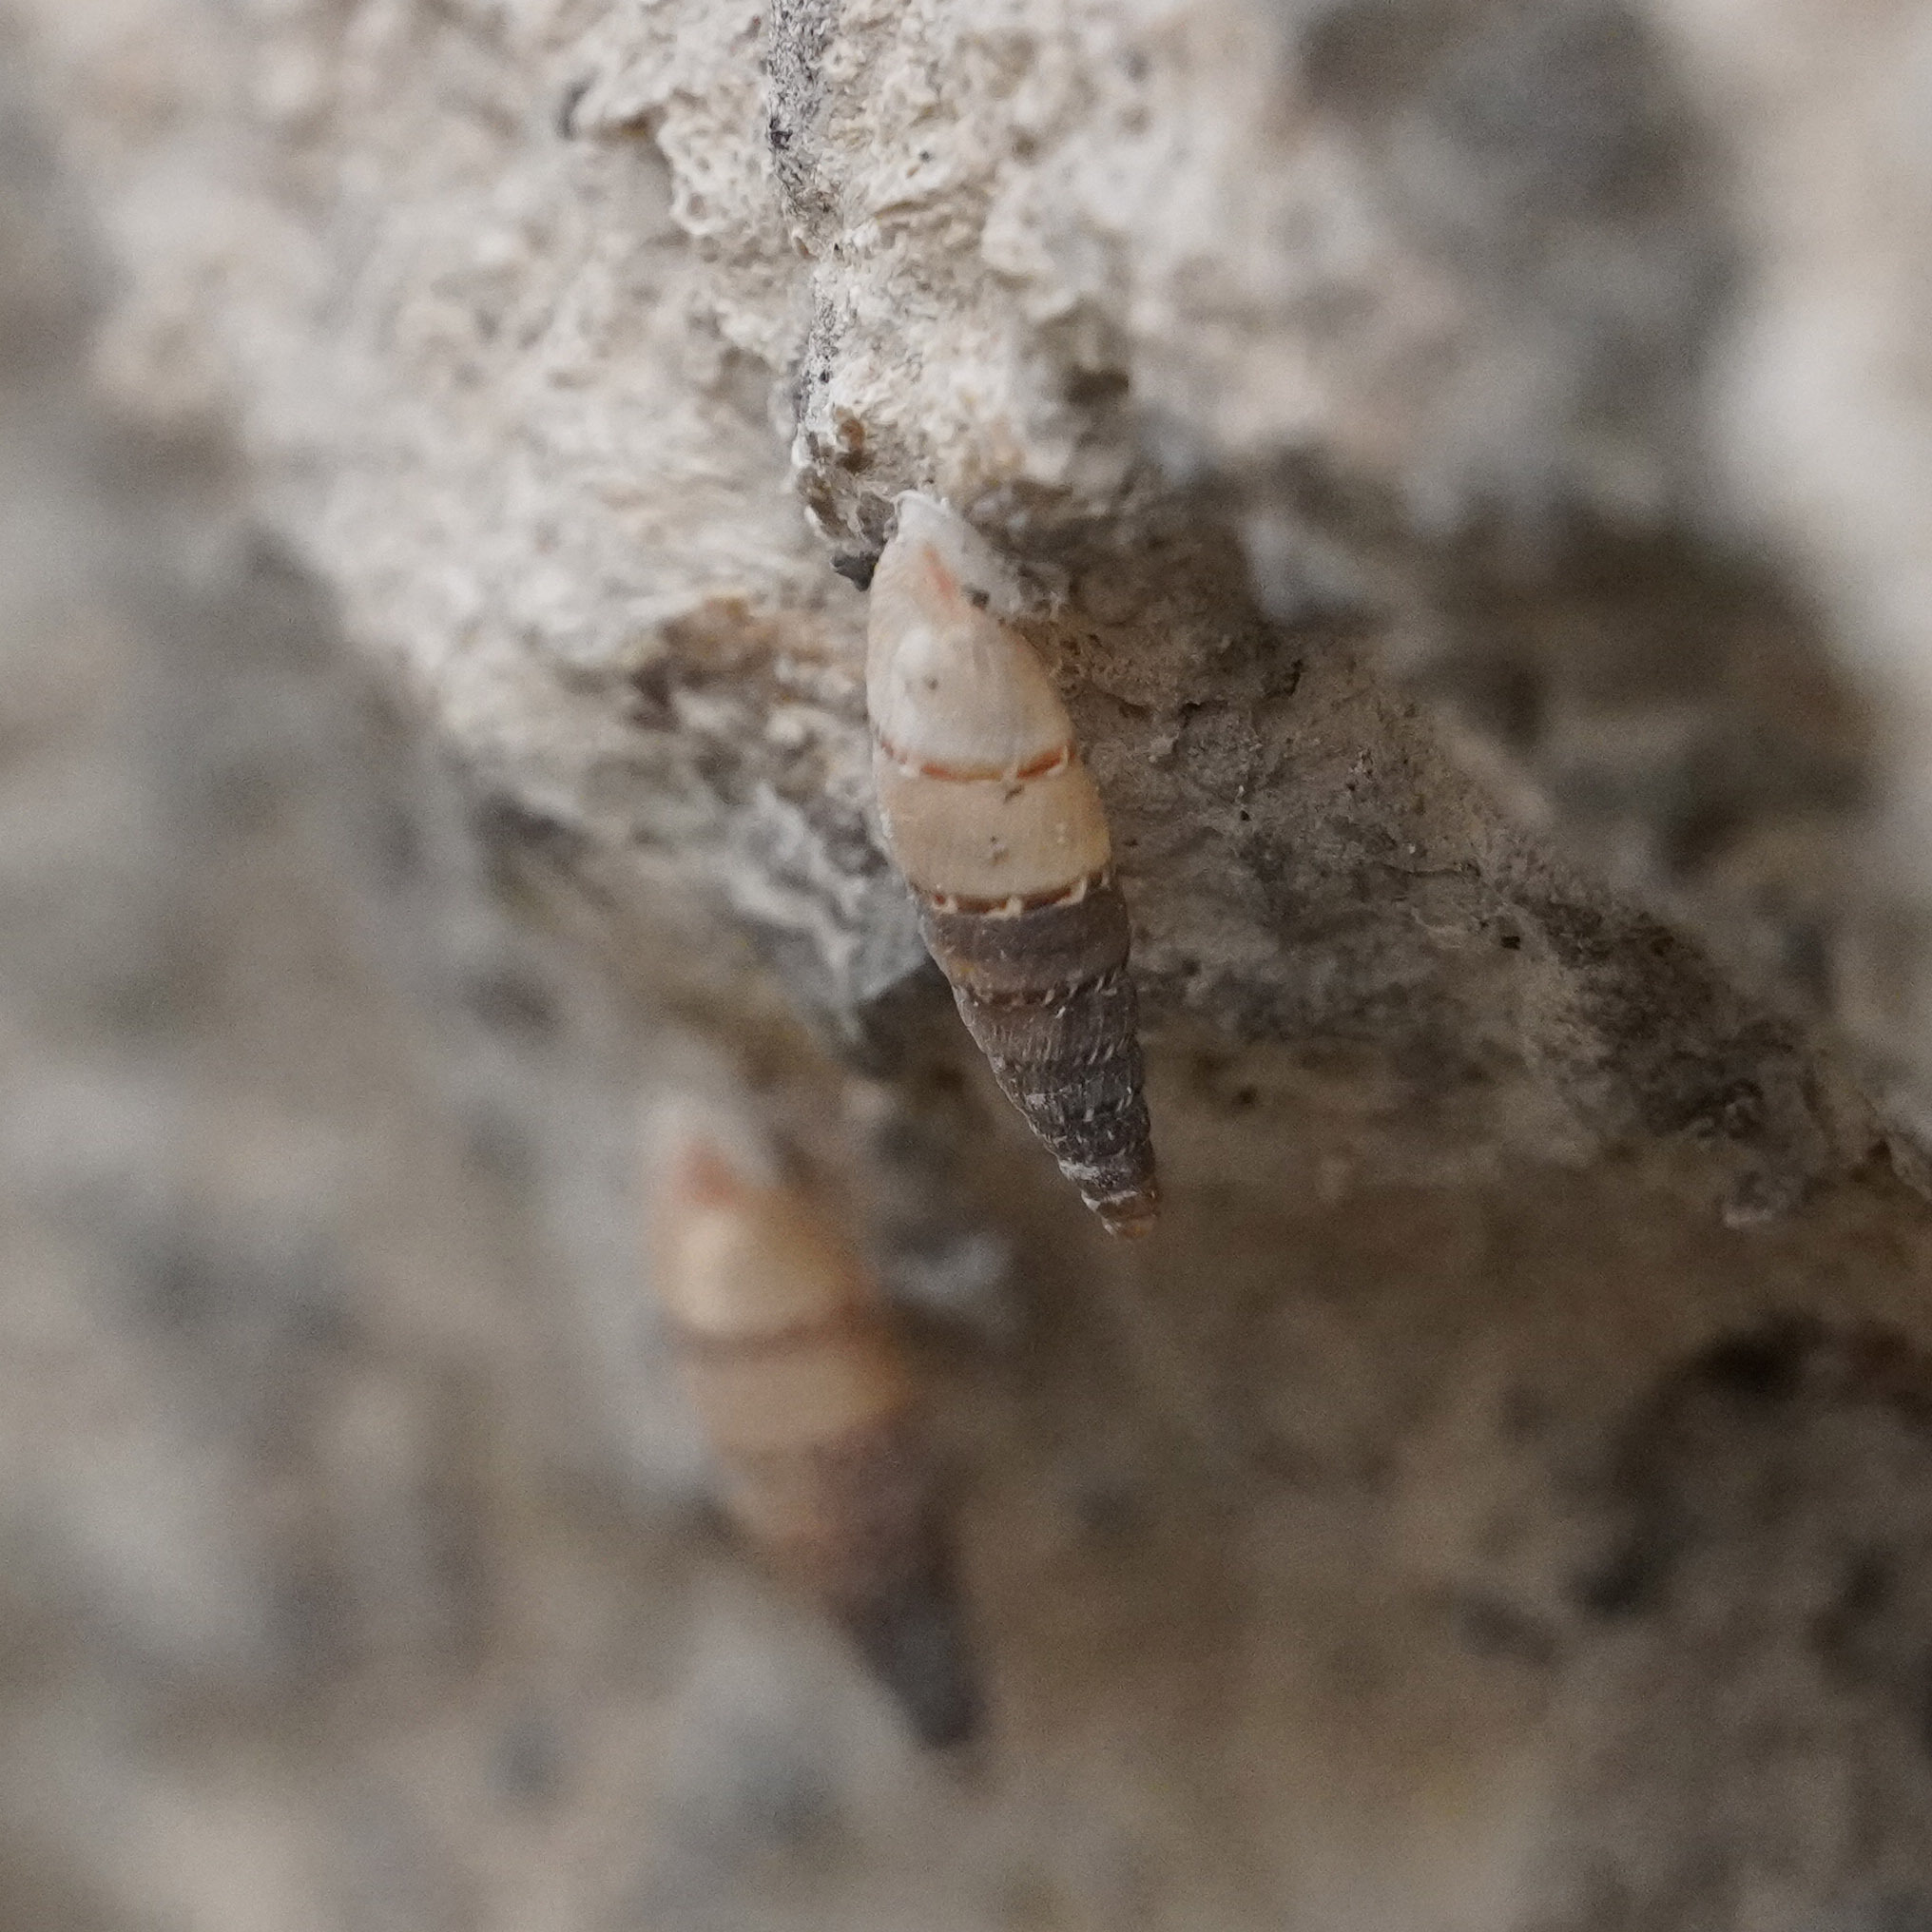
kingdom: Animalia
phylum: Mollusca
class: Gastropoda
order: Stylommatophora
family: Clausiliidae
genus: Papillifera
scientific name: Papillifera papillaris
